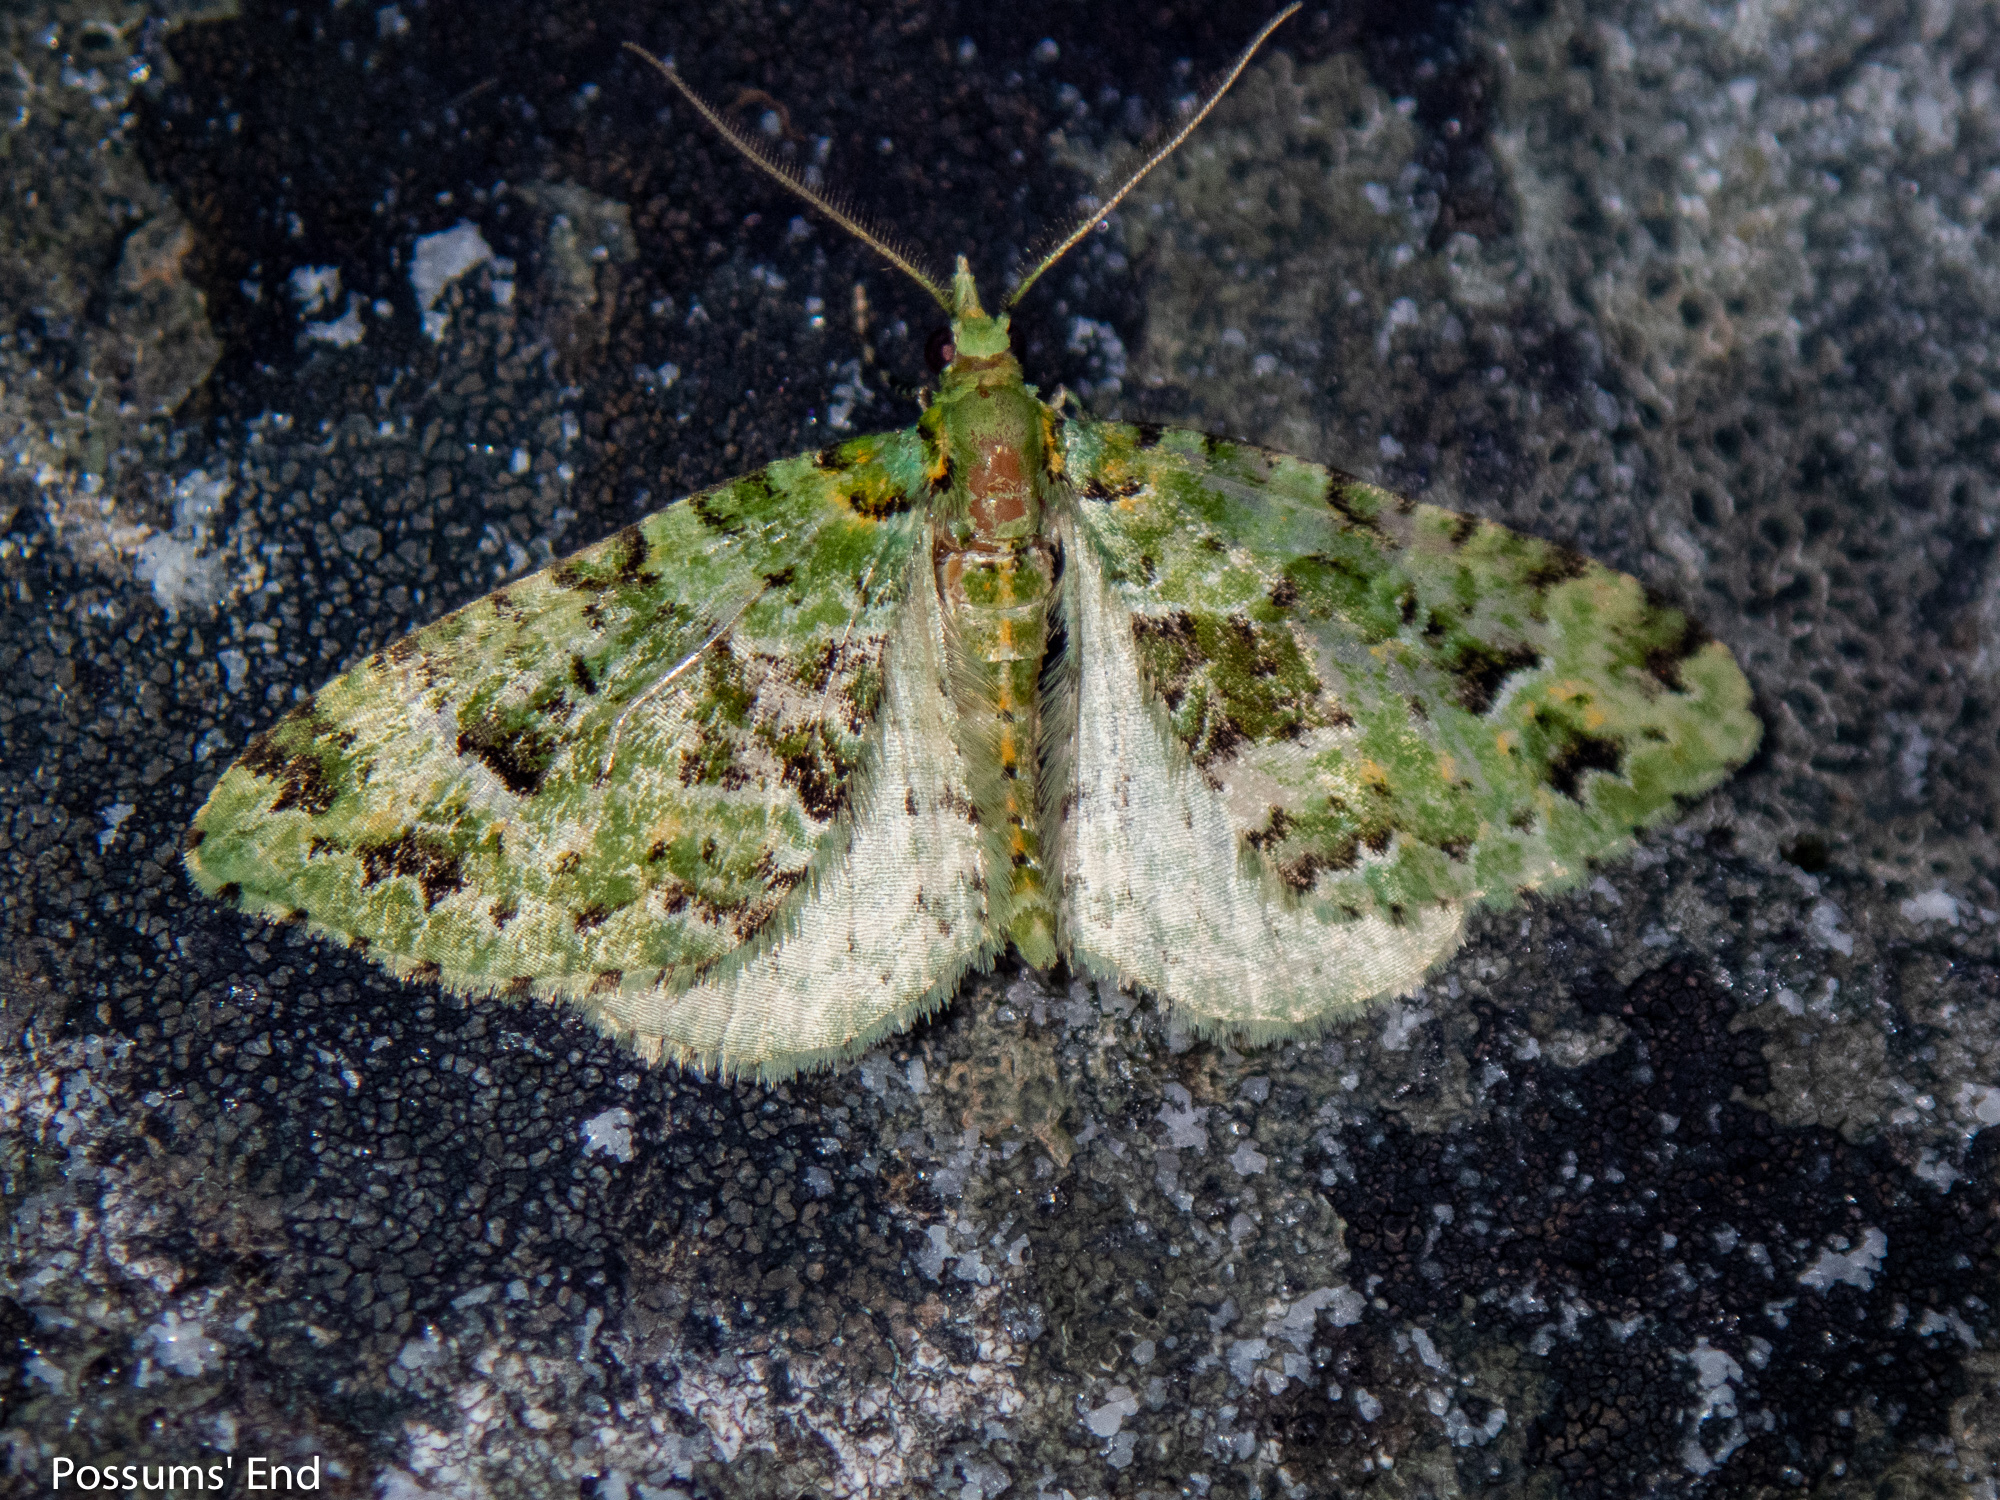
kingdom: Animalia
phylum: Arthropoda
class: Insecta
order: Lepidoptera
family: Geometridae
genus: Pasiphila
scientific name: Pasiphila melochlora
